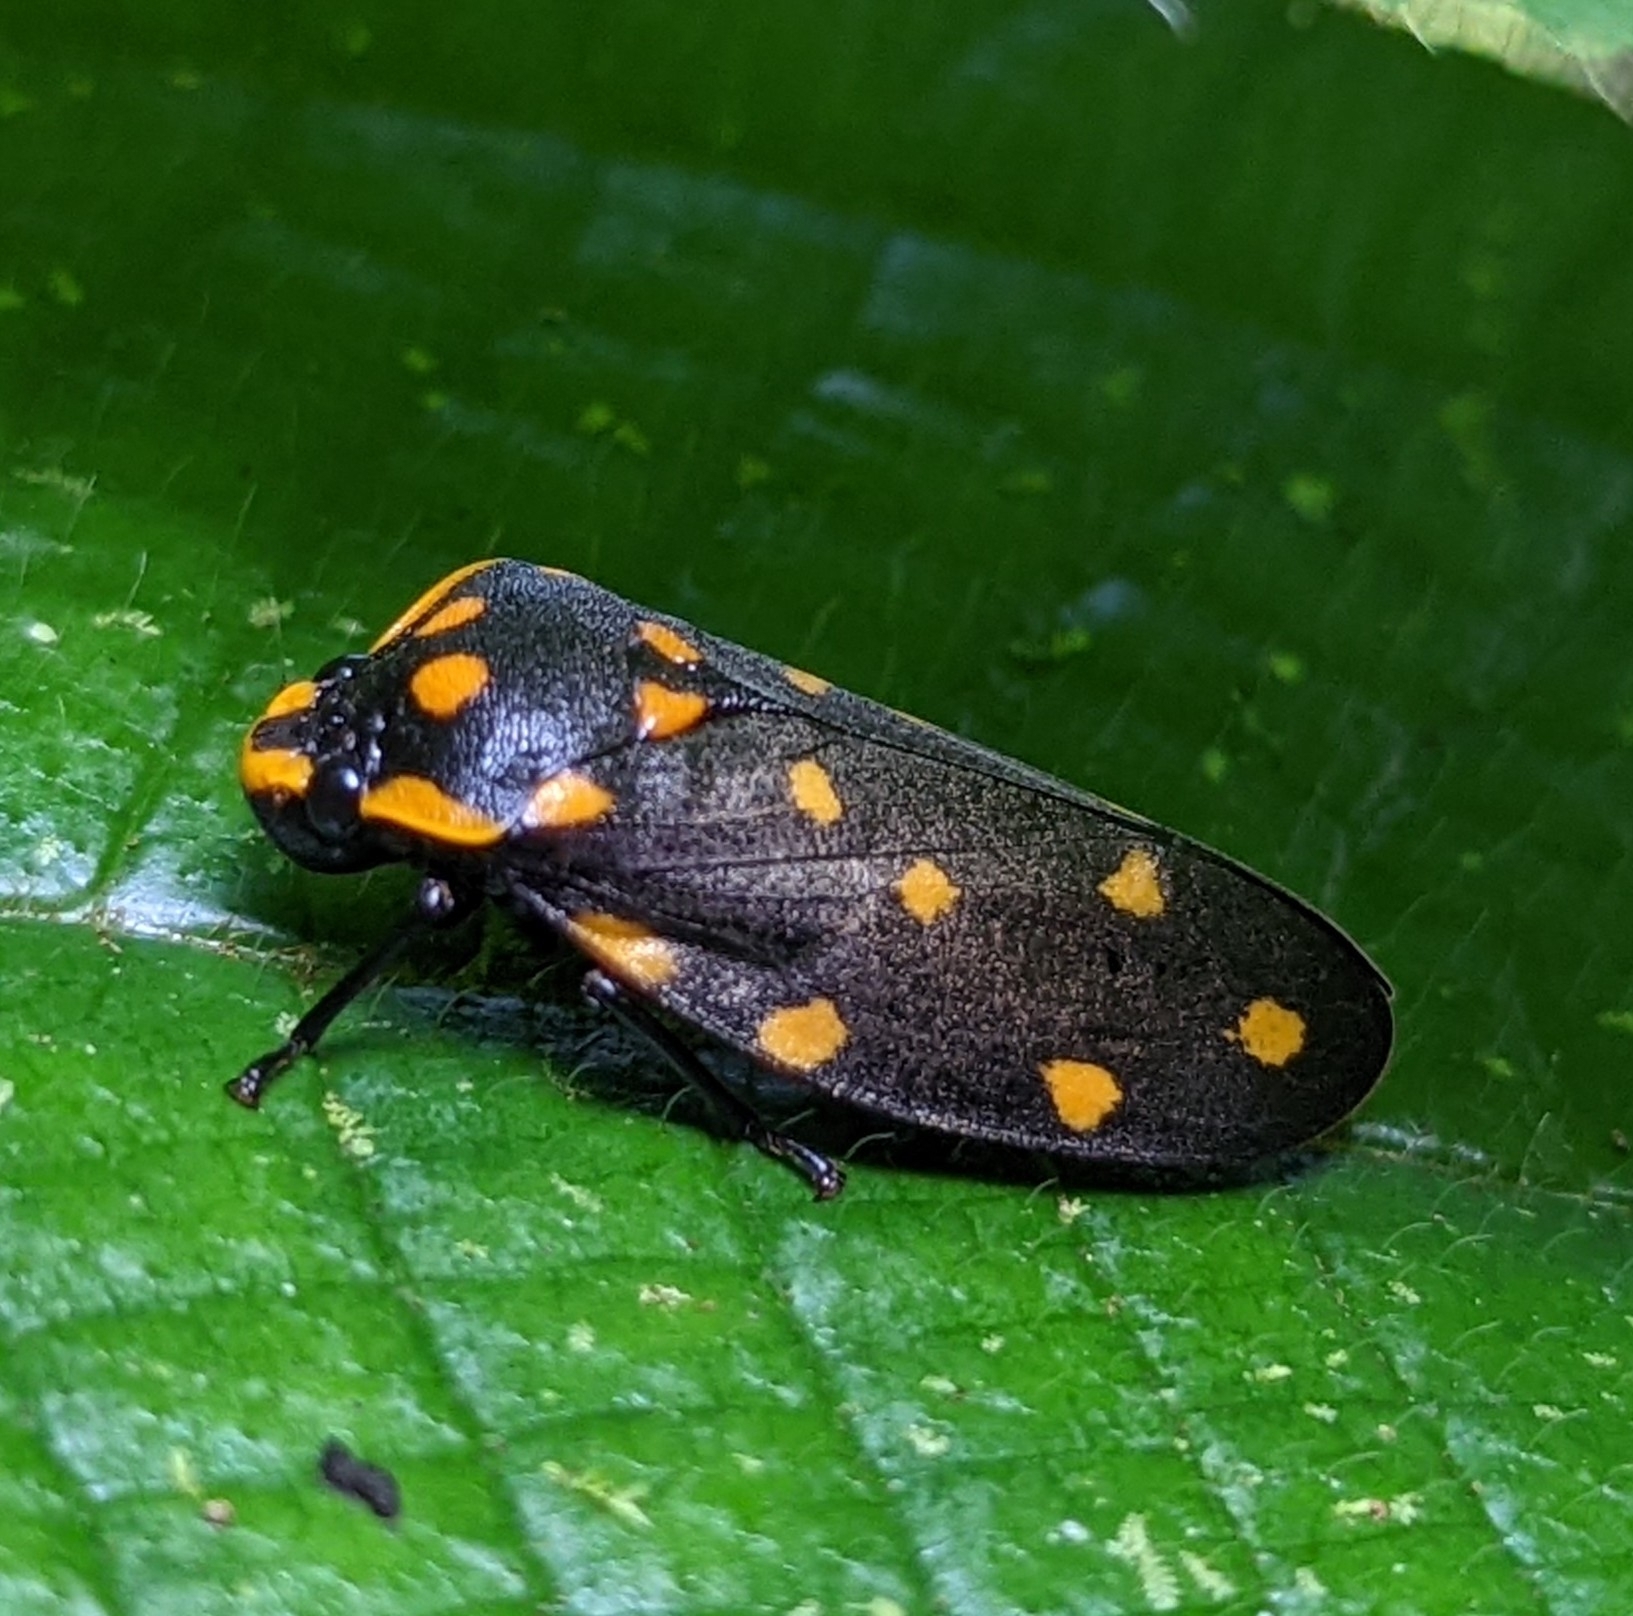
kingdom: Animalia
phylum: Arthropoda
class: Insecta
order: Hemiptera
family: Cercopidae
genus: Phymatostetha
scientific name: Phymatostetha stellata
